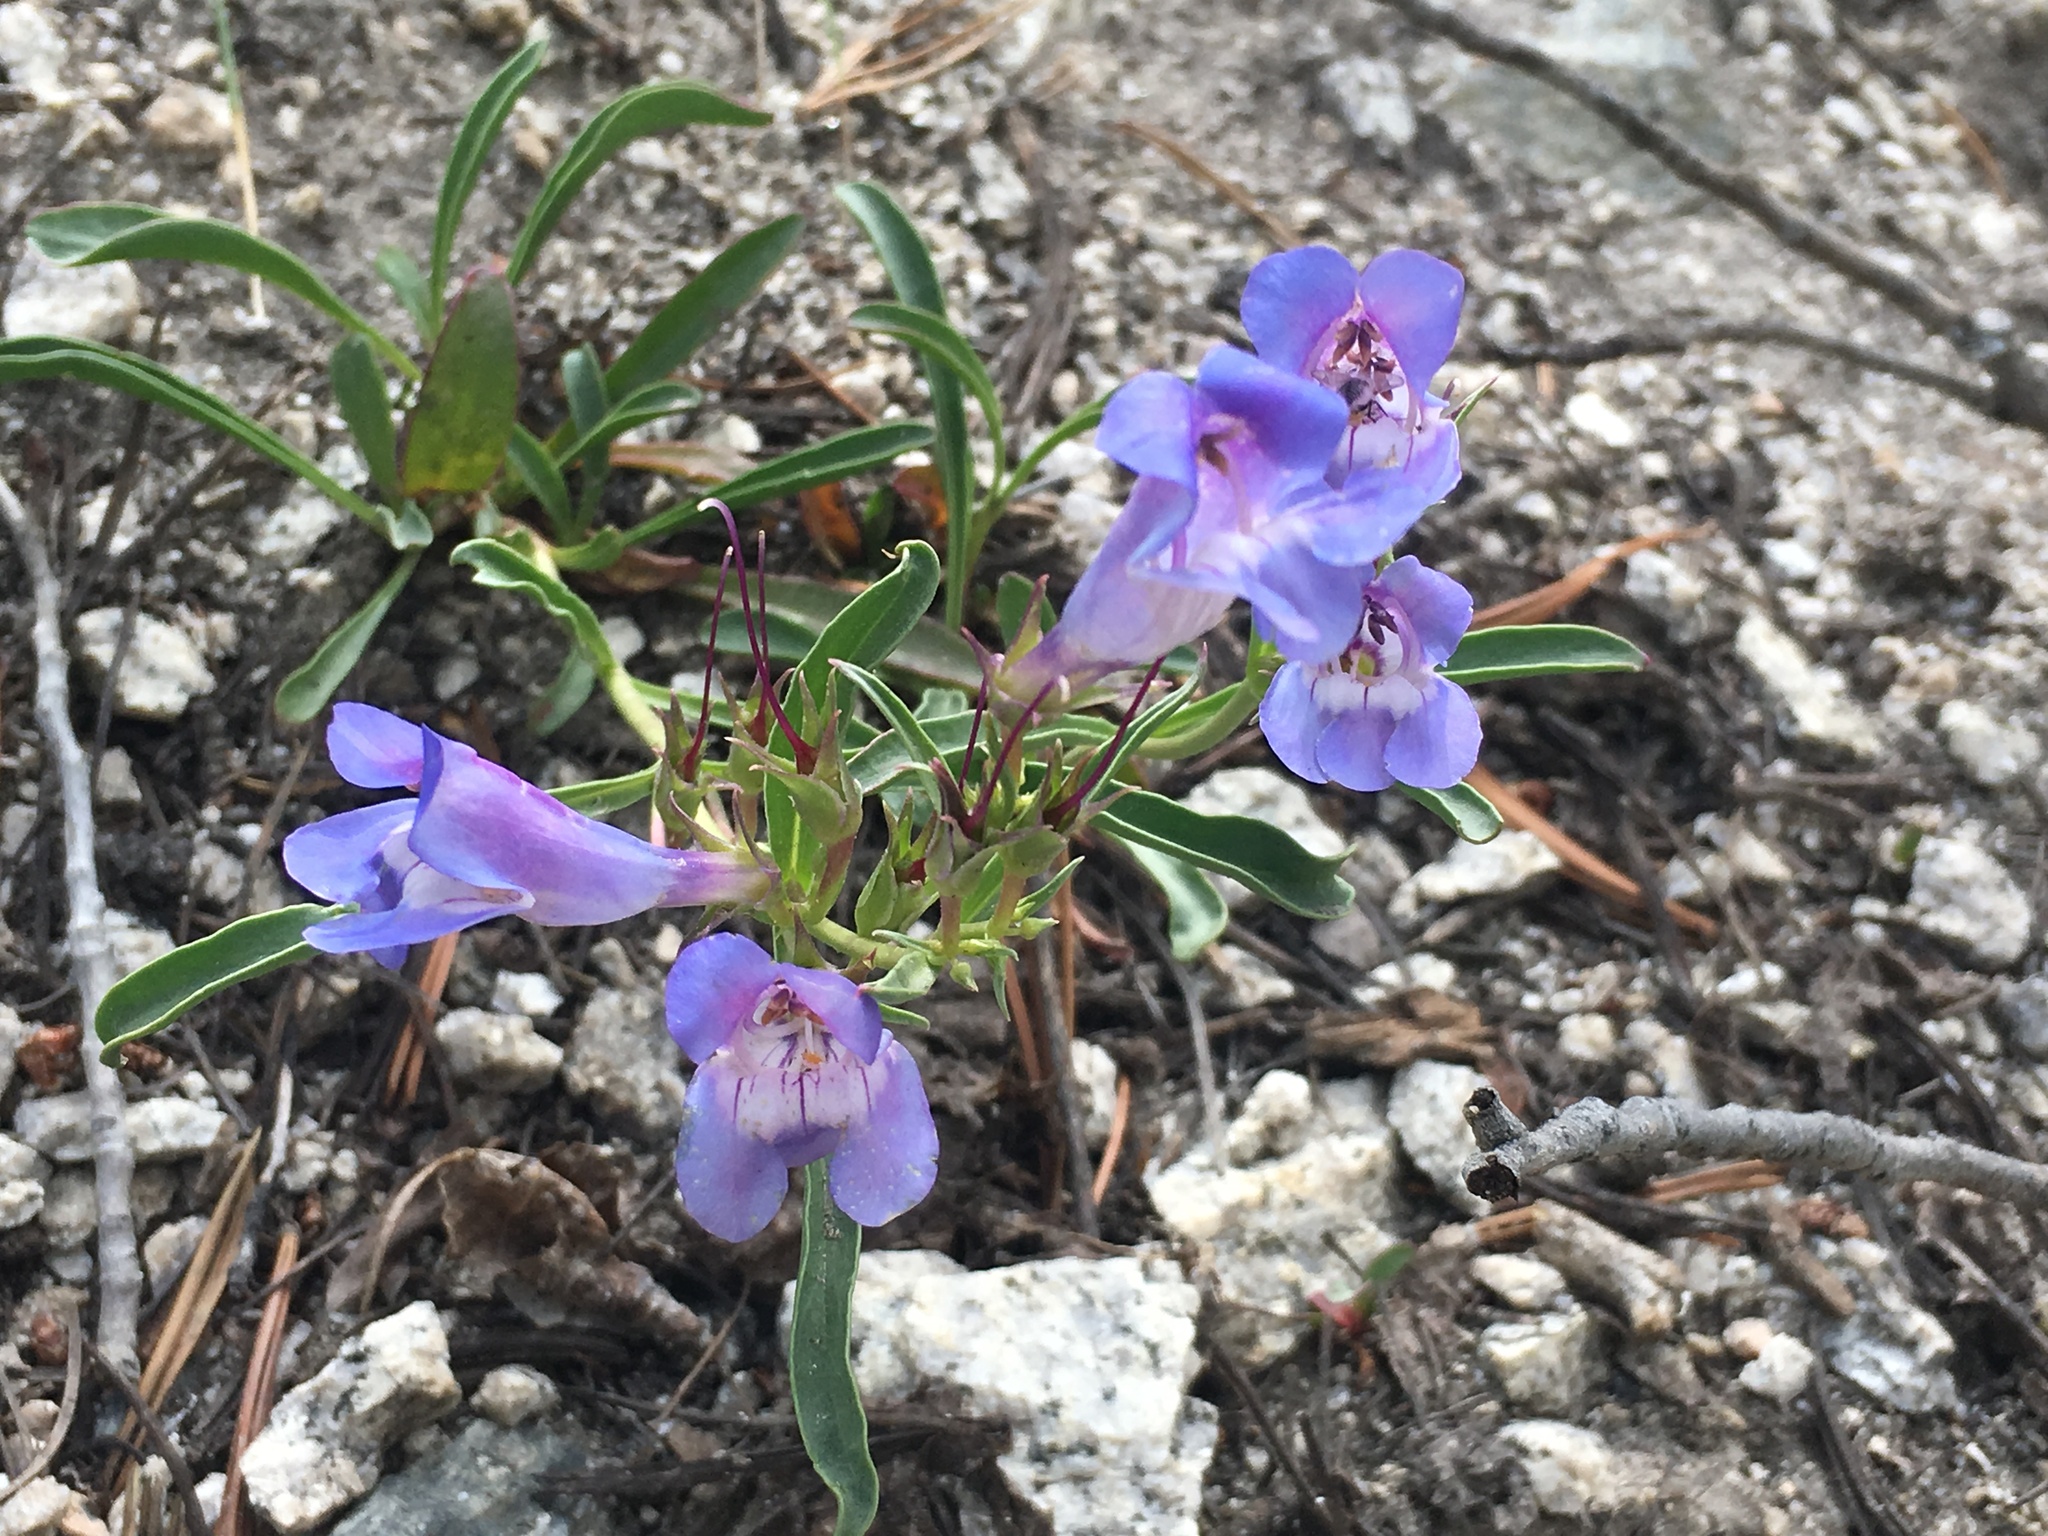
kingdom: Plantae
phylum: Tracheophyta
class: Magnoliopsida
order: Lamiales
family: Plantaginaceae
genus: Penstemon
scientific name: Penstemon speciosus
